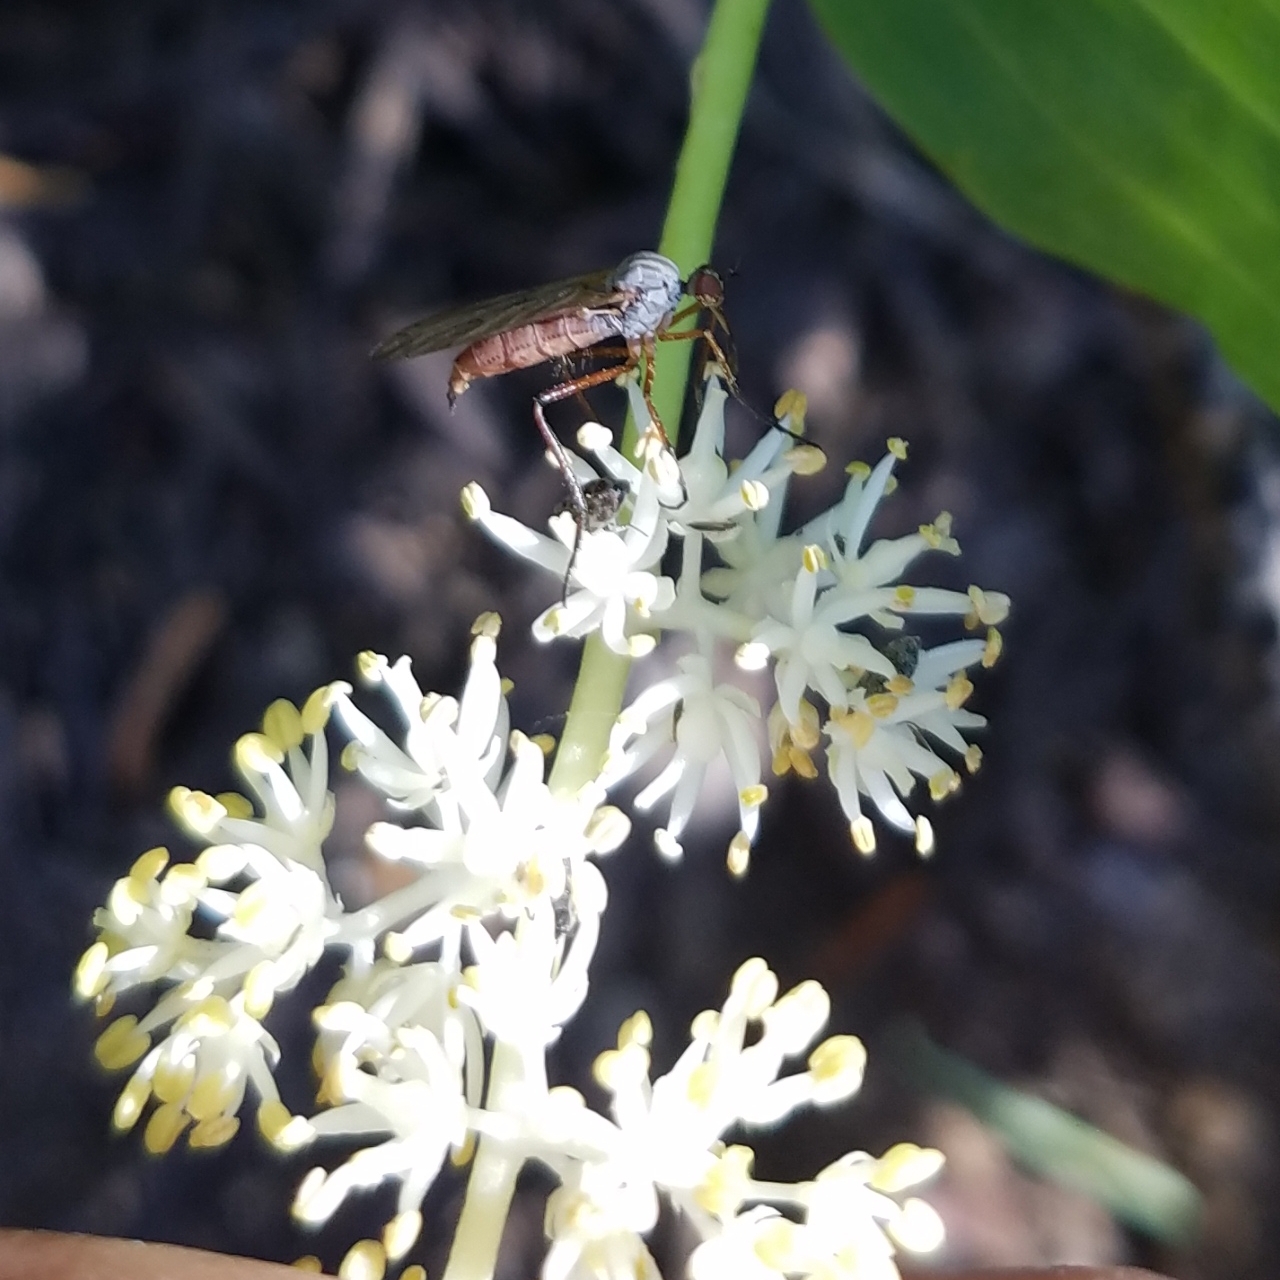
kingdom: Plantae
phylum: Tracheophyta
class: Liliopsida
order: Asparagales
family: Asparagaceae
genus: Maianthemum
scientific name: Maianthemum racemosum
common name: False spikenard
